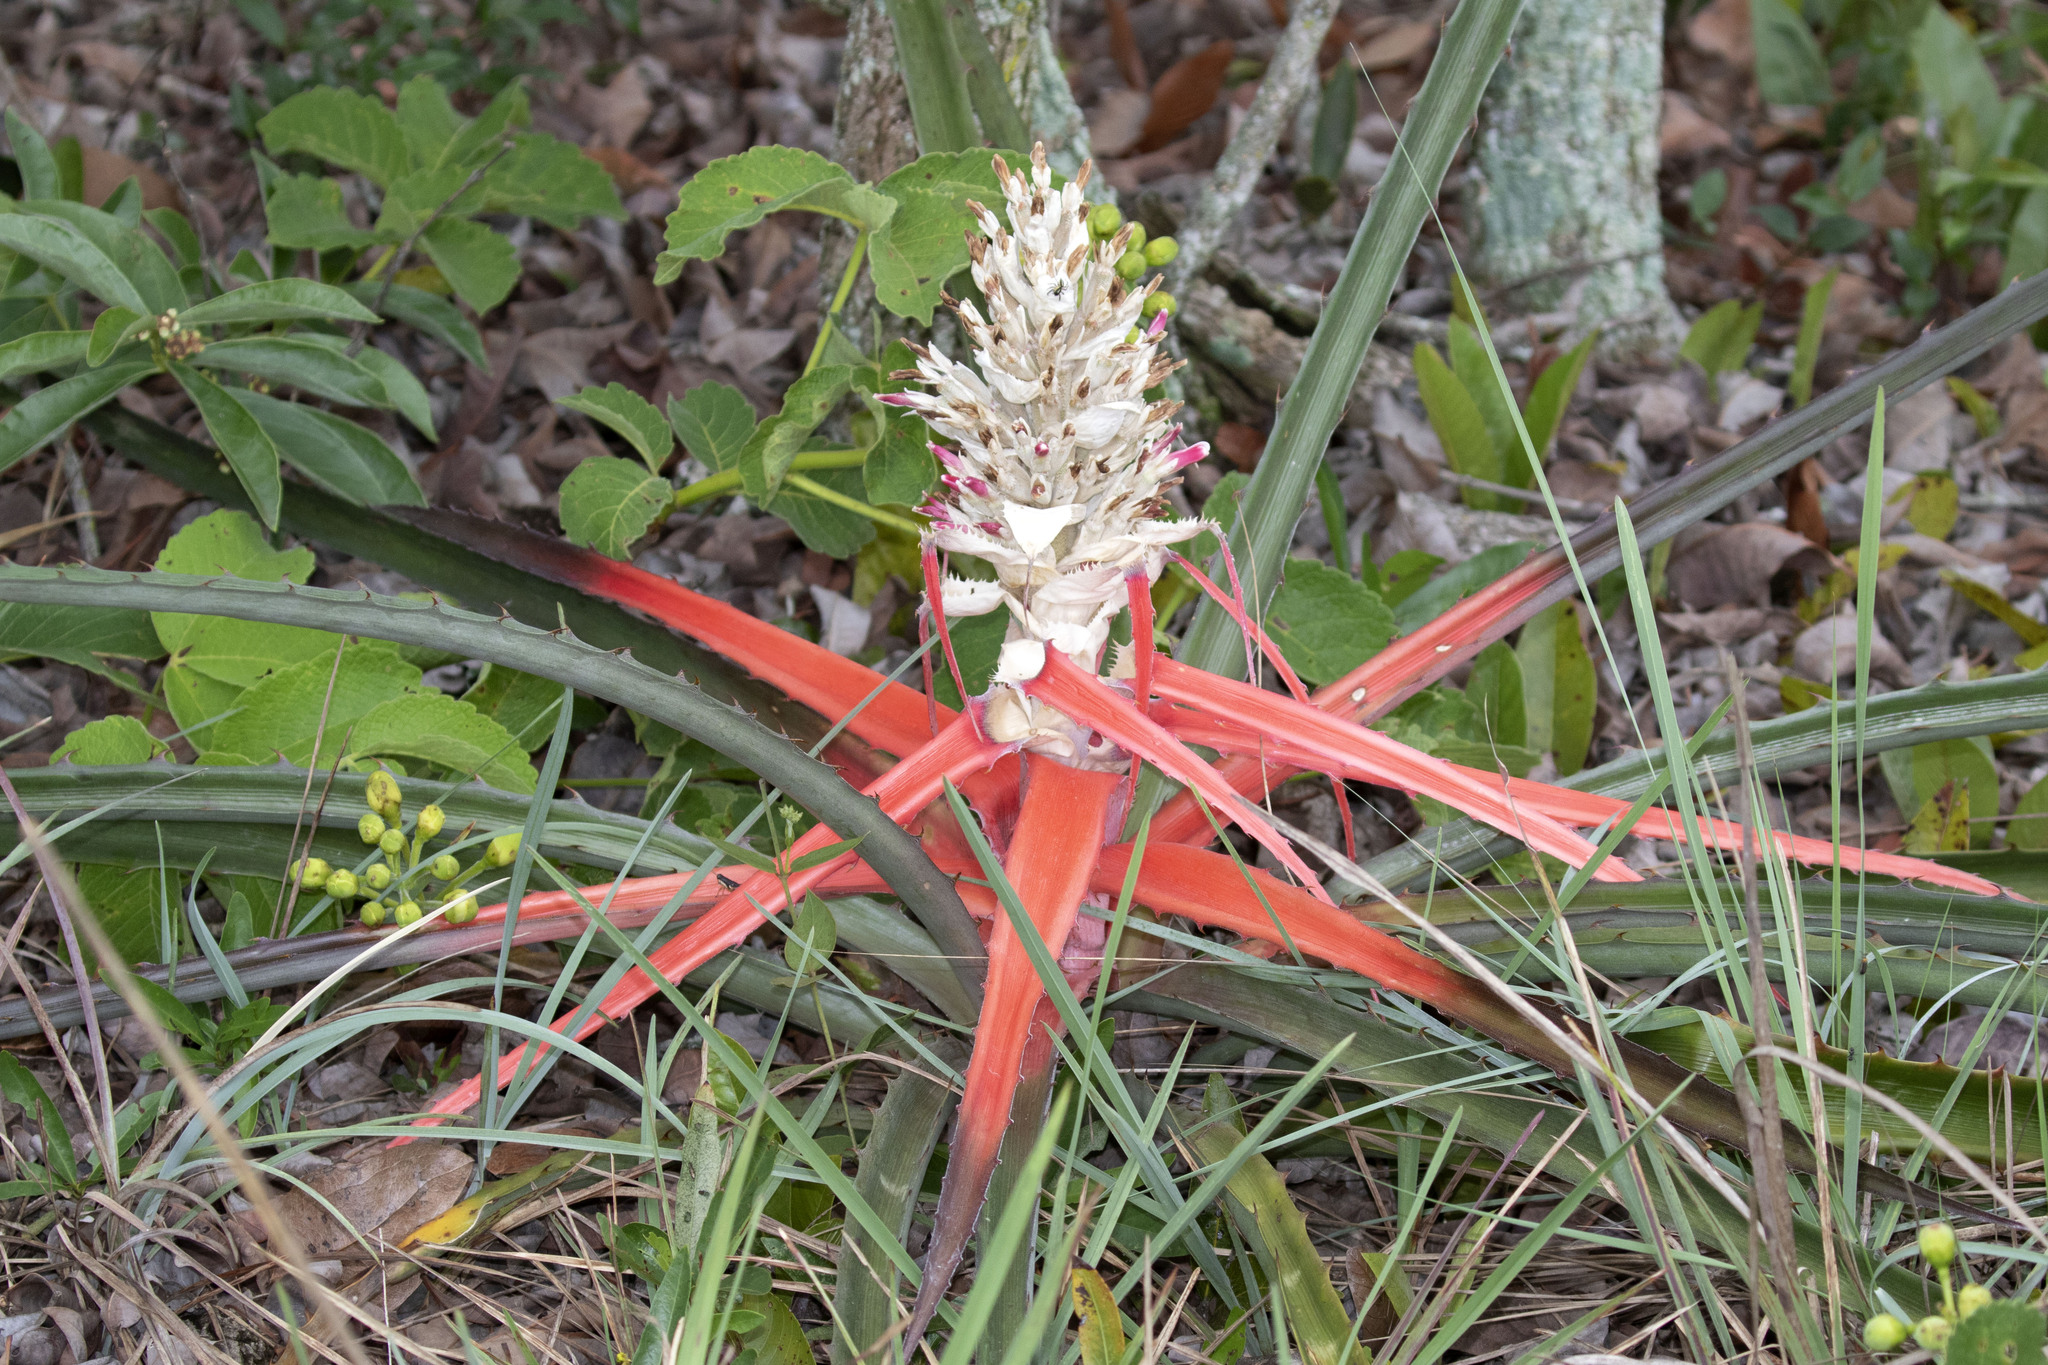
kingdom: Plantae
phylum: Tracheophyta
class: Liliopsida
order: Poales
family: Bromeliaceae
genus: Bromelia
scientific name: Bromelia balansae
